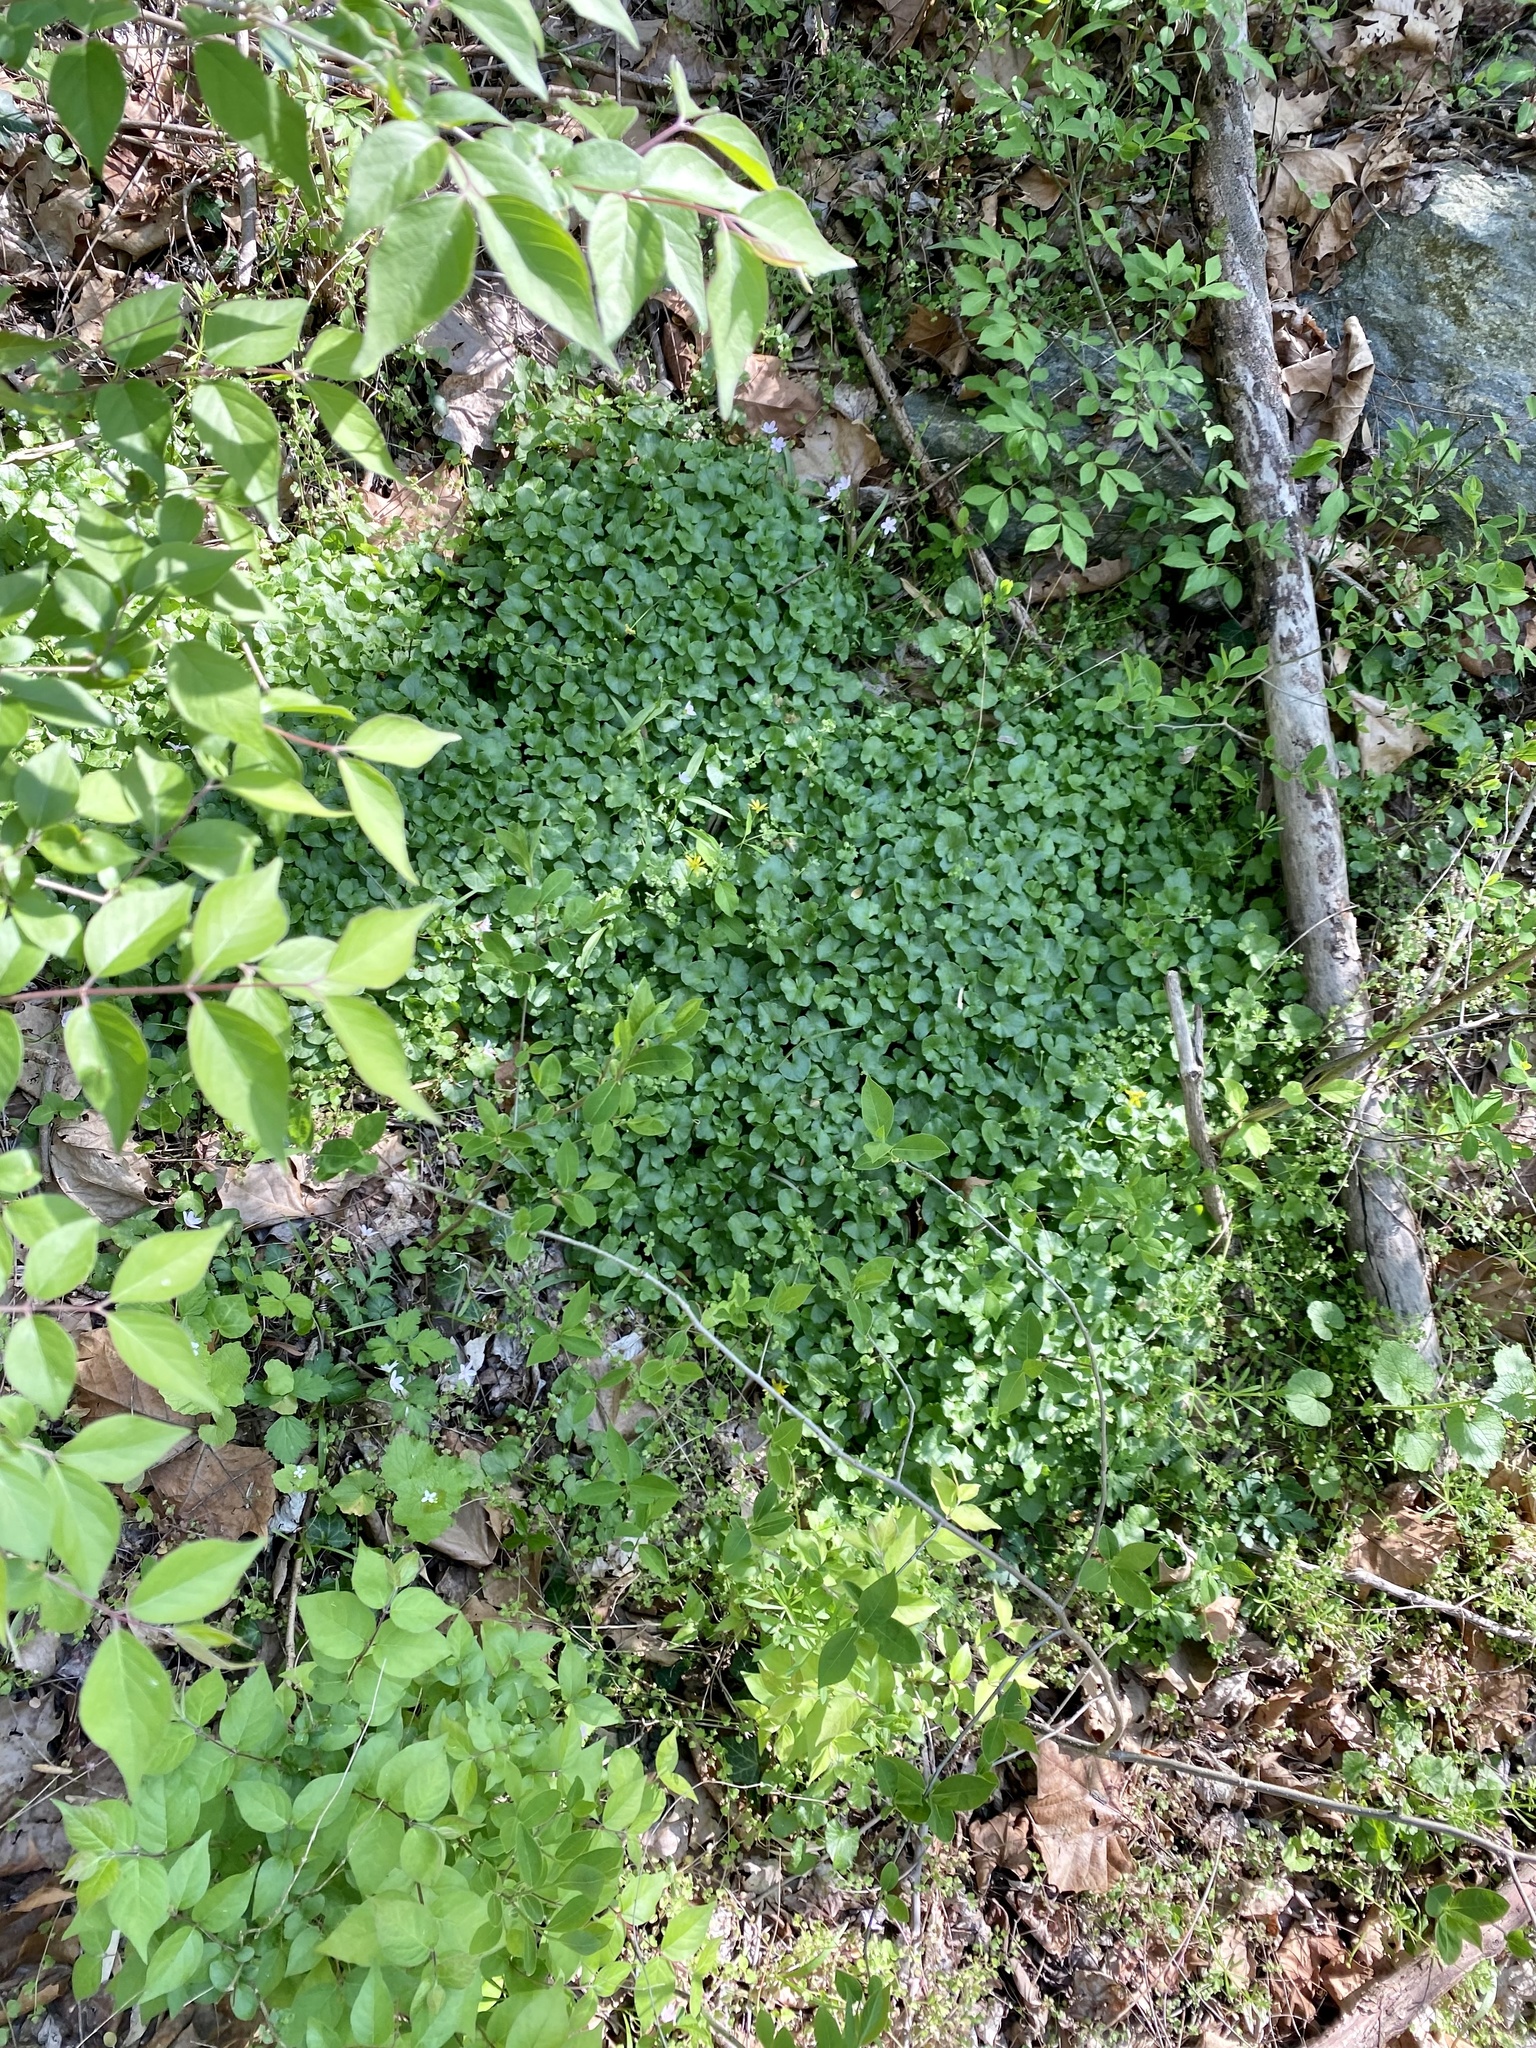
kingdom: Plantae
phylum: Tracheophyta
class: Magnoliopsida
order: Ranunculales
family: Ranunculaceae
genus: Ficaria
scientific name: Ficaria verna
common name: Lesser celandine
